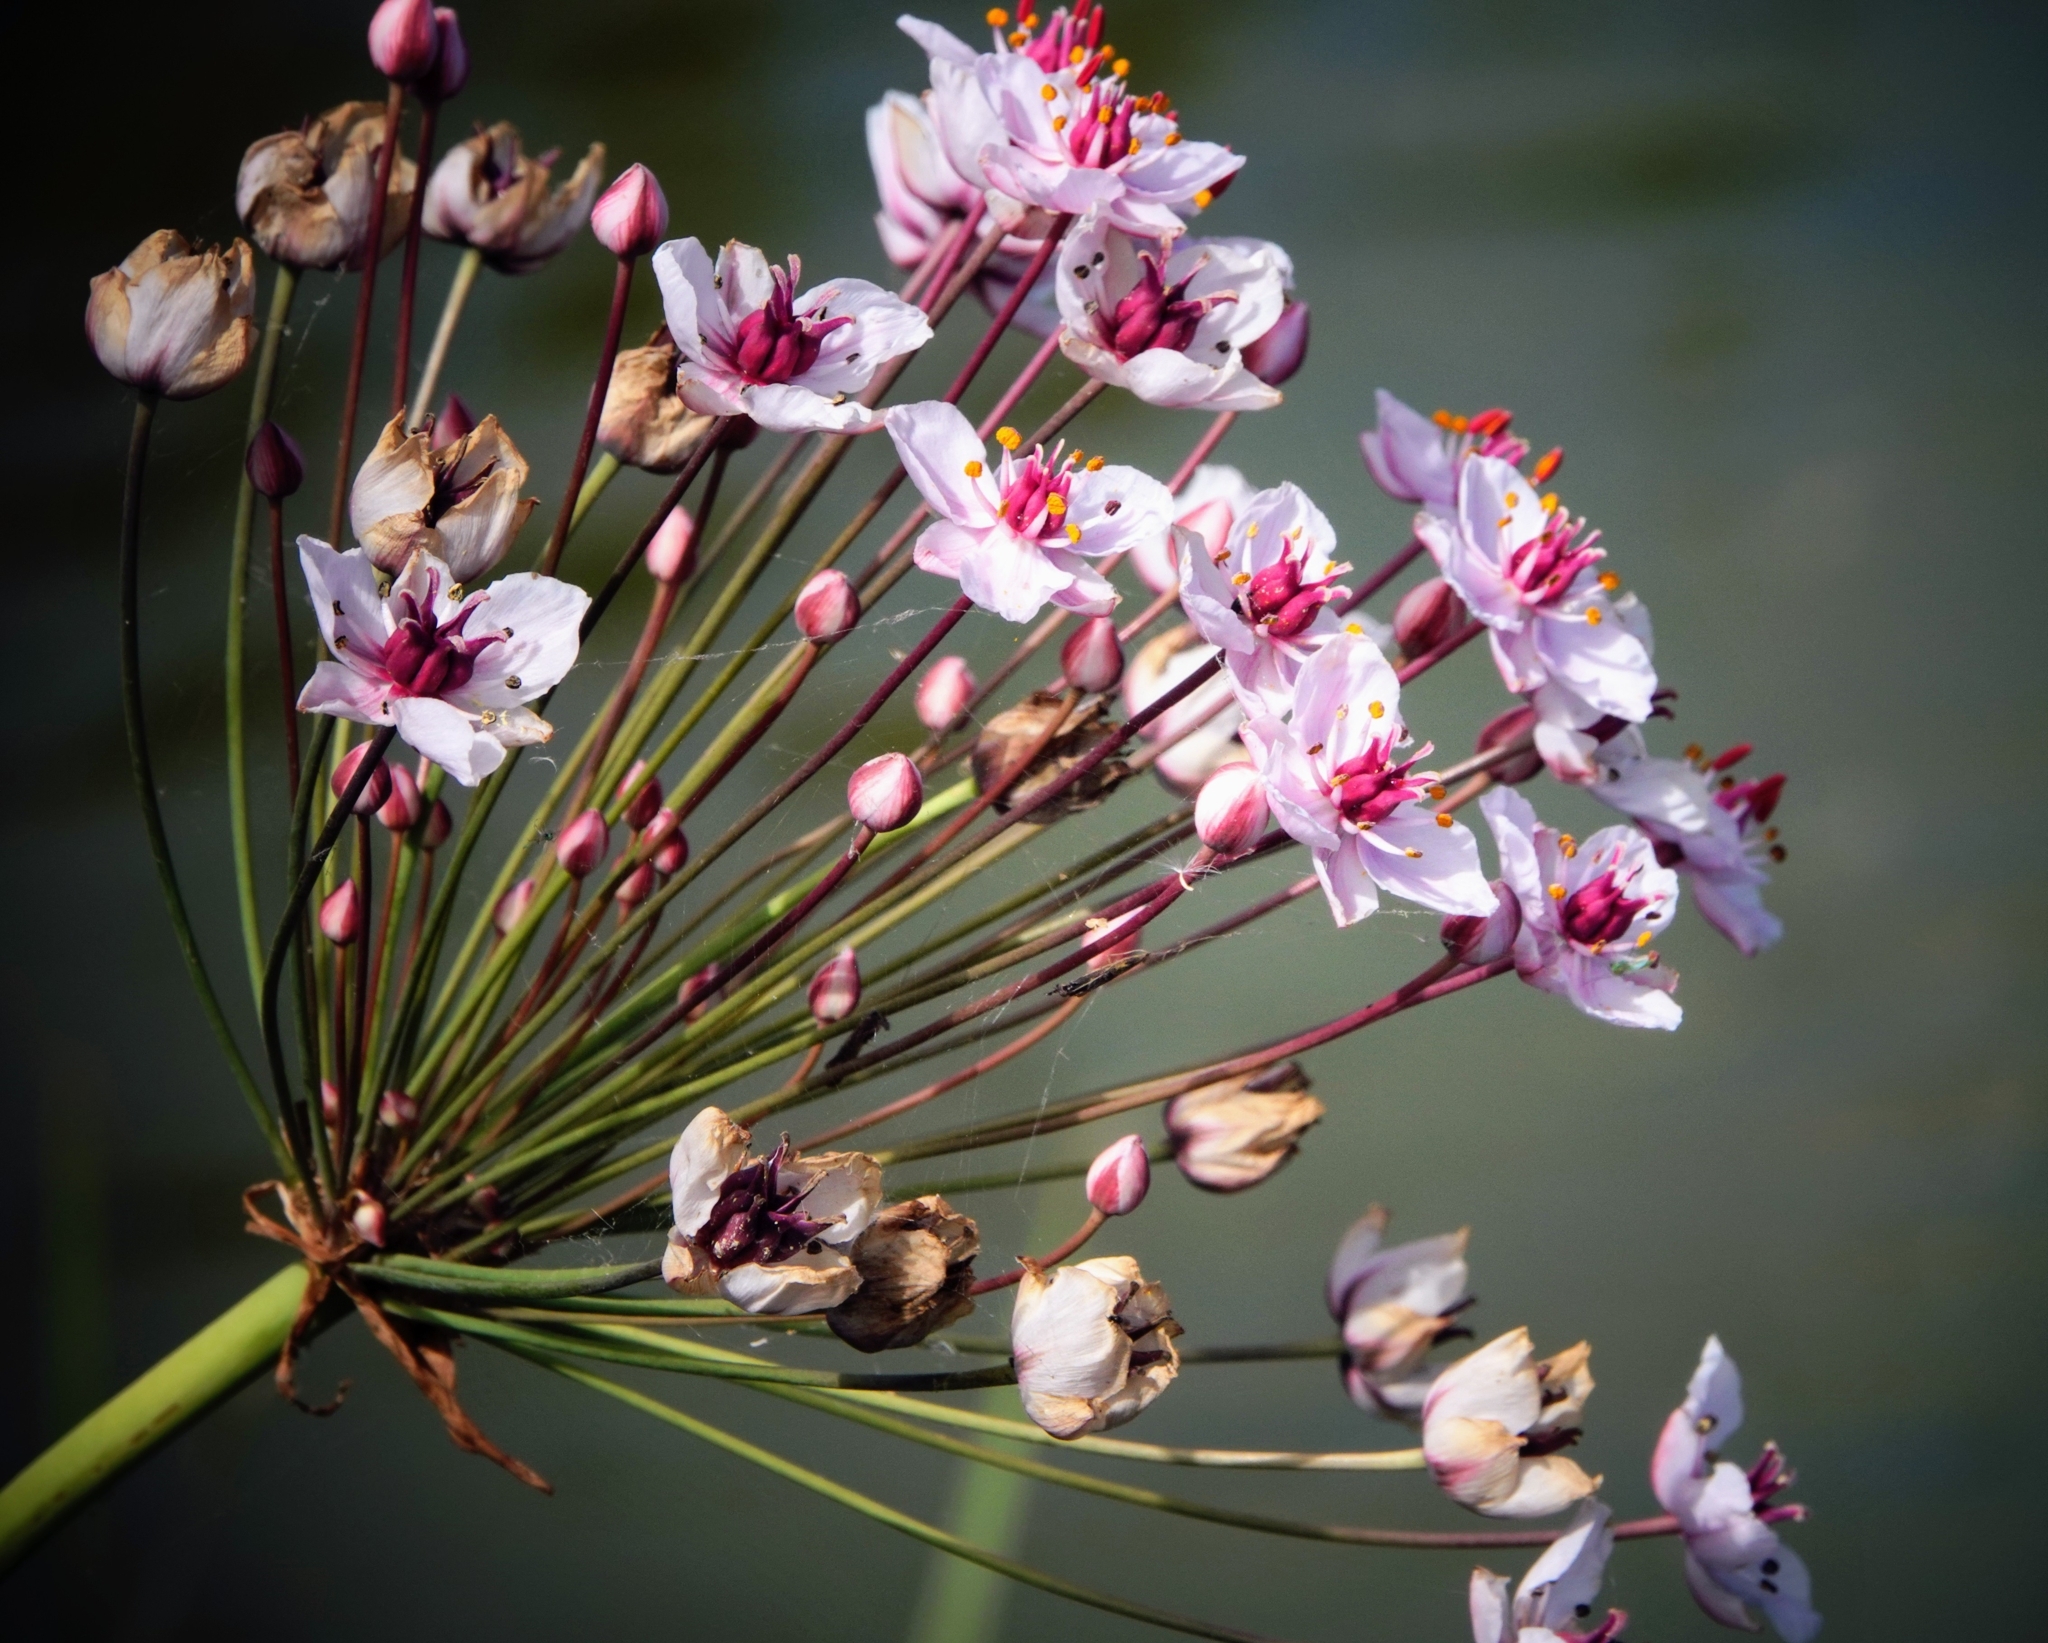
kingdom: Plantae
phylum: Tracheophyta
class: Liliopsida
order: Alismatales
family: Butomaceae
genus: Butomus
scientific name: Butomus umbellatus
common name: Flowering-rush
